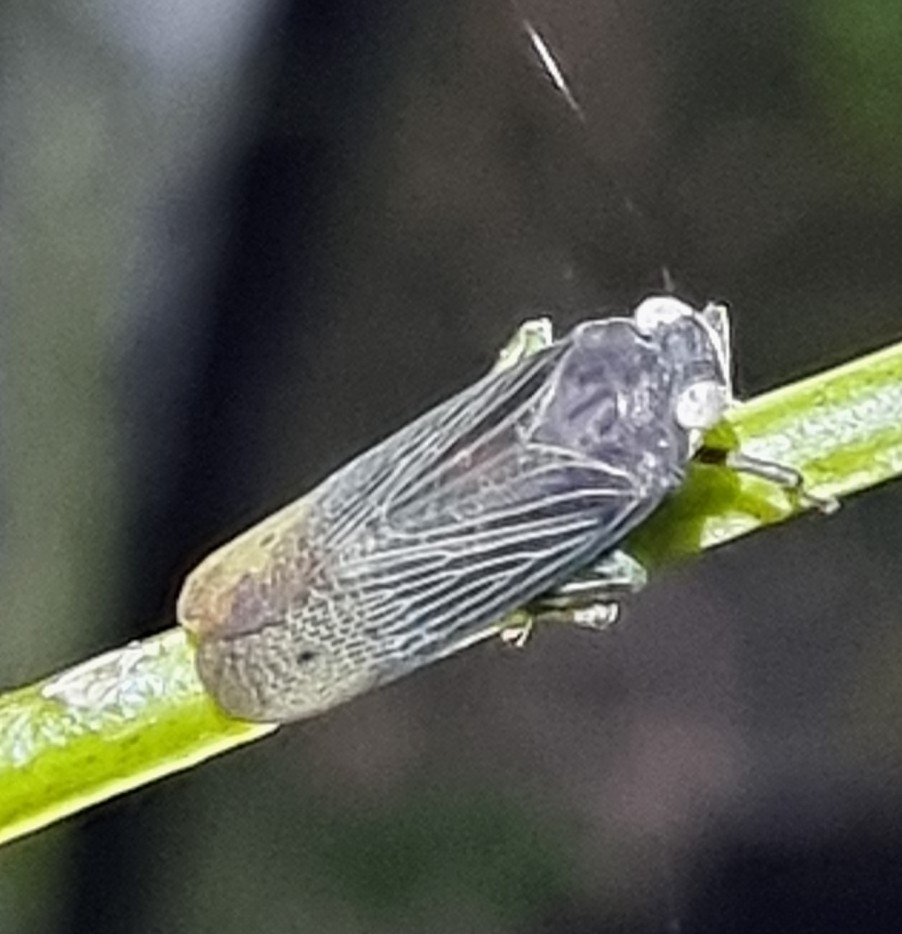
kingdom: Animalia
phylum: Arthropoda
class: Insecta
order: Hemiptera
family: Fulgoridae
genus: Desudaba
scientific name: Desudaba psittacus
